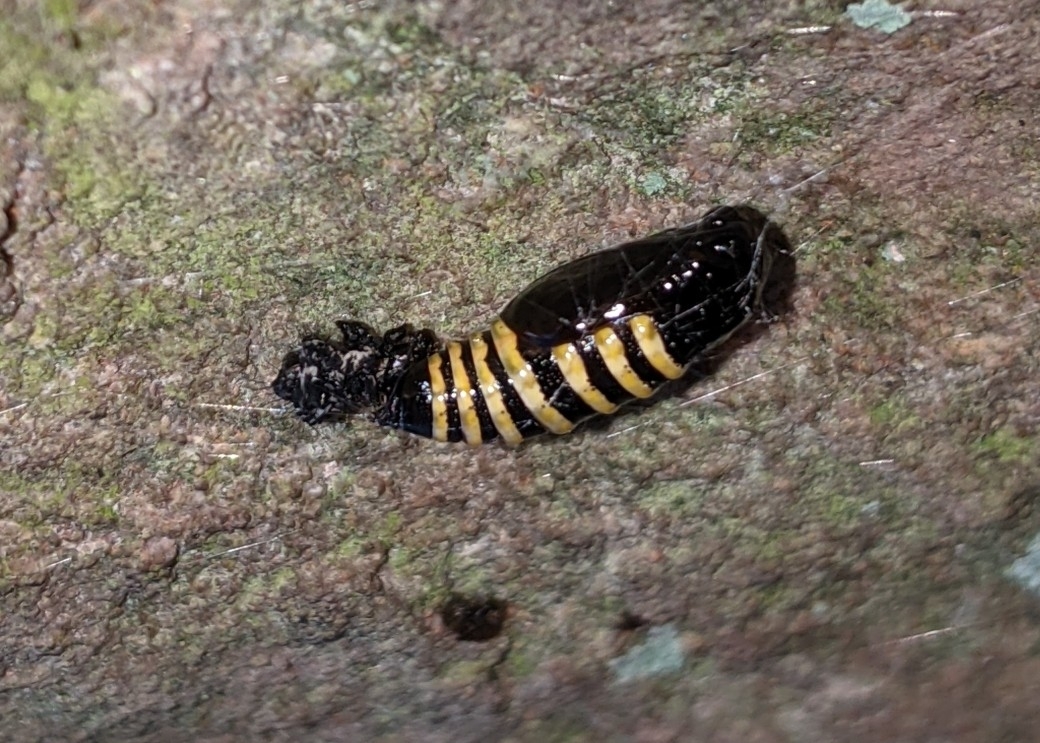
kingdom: Animalia
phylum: Arthropoda
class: Insecta
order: Lepidoptera
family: Geometridae
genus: Abraxas
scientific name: Abraxas grossulariata
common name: Magpie
